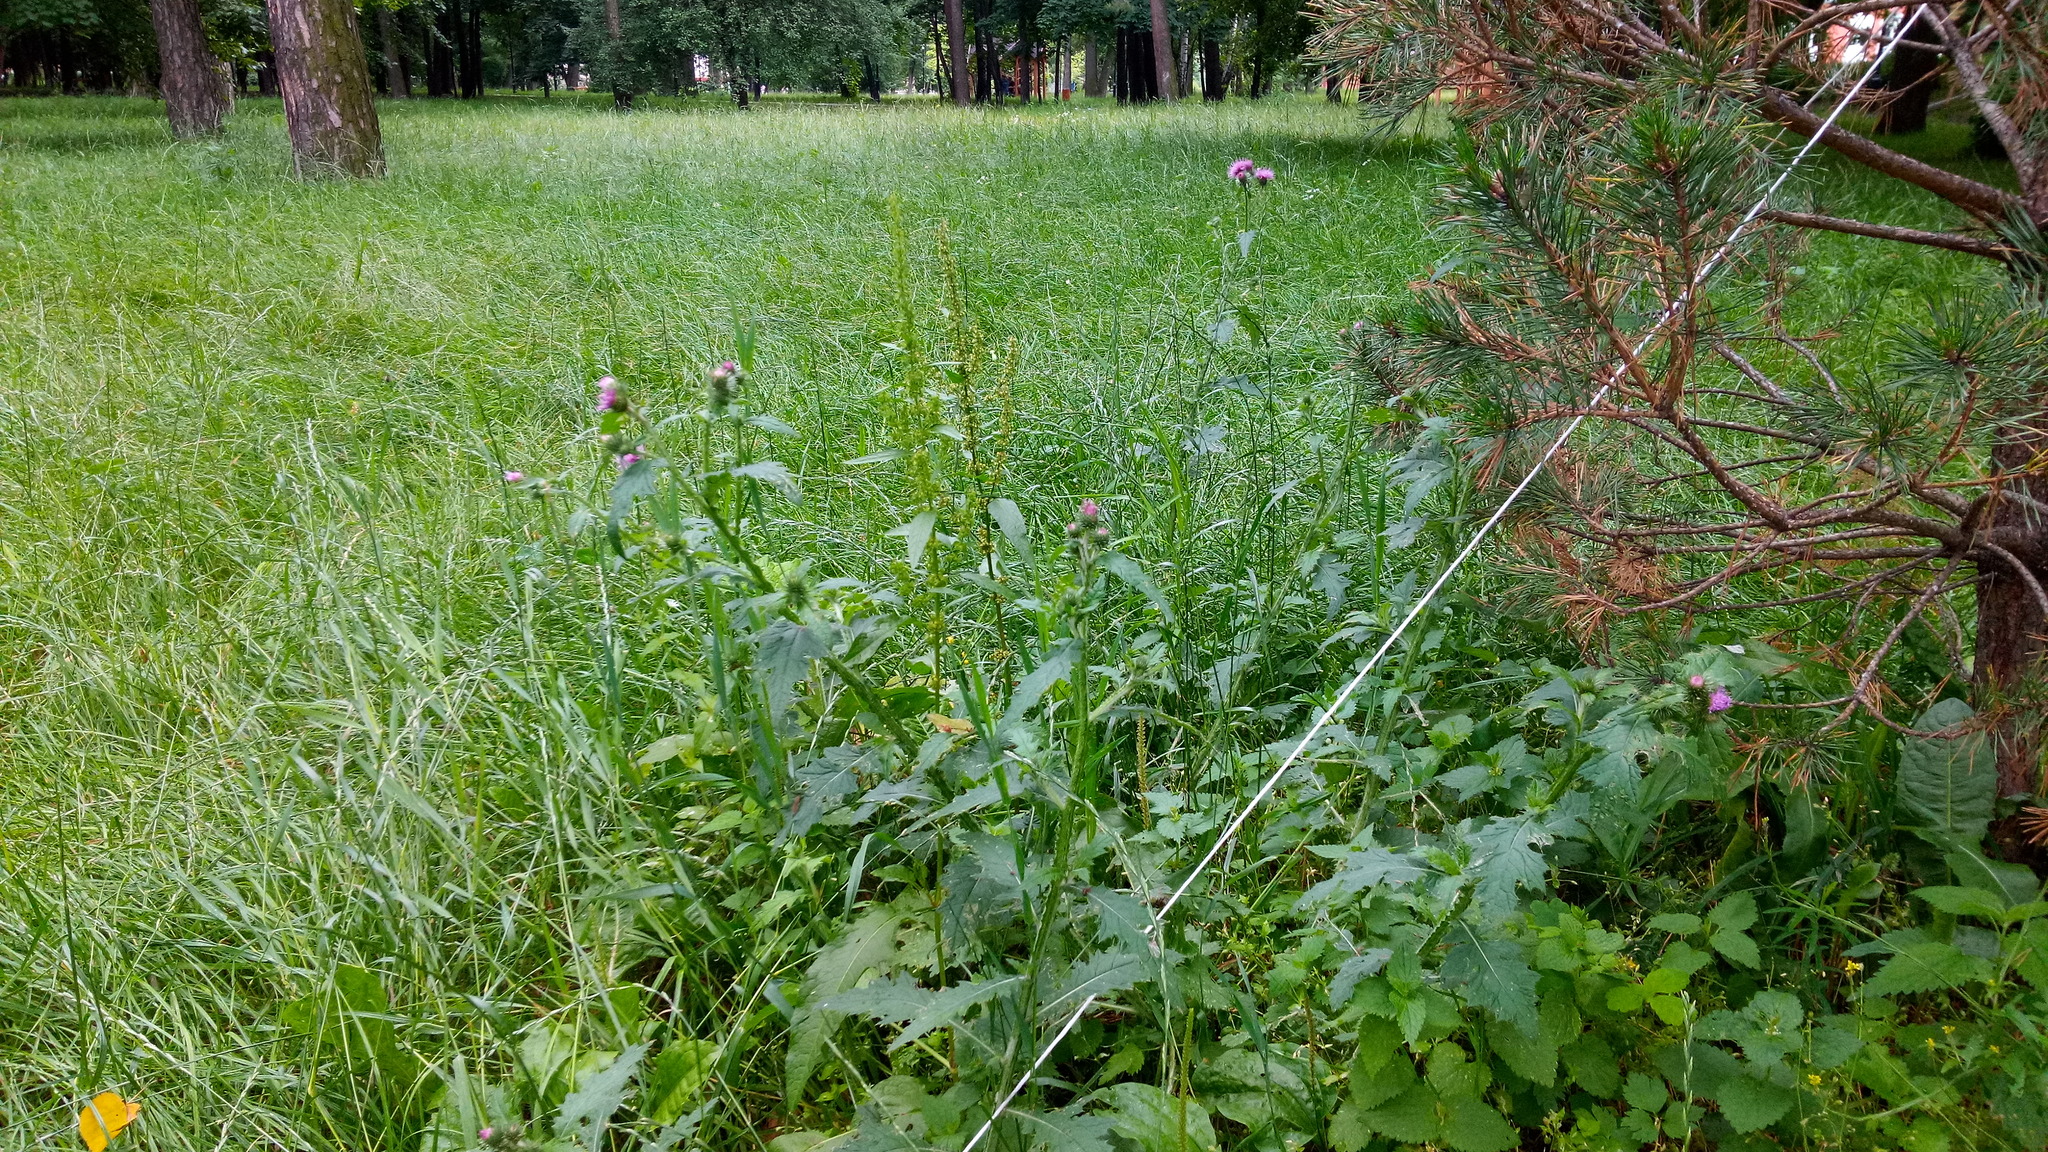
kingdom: Plantae
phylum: Tracheophyta
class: Magnoliopsida
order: Asterales
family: Asteraceae
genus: Carduus
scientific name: Carduus crispus
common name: Welted thistle
